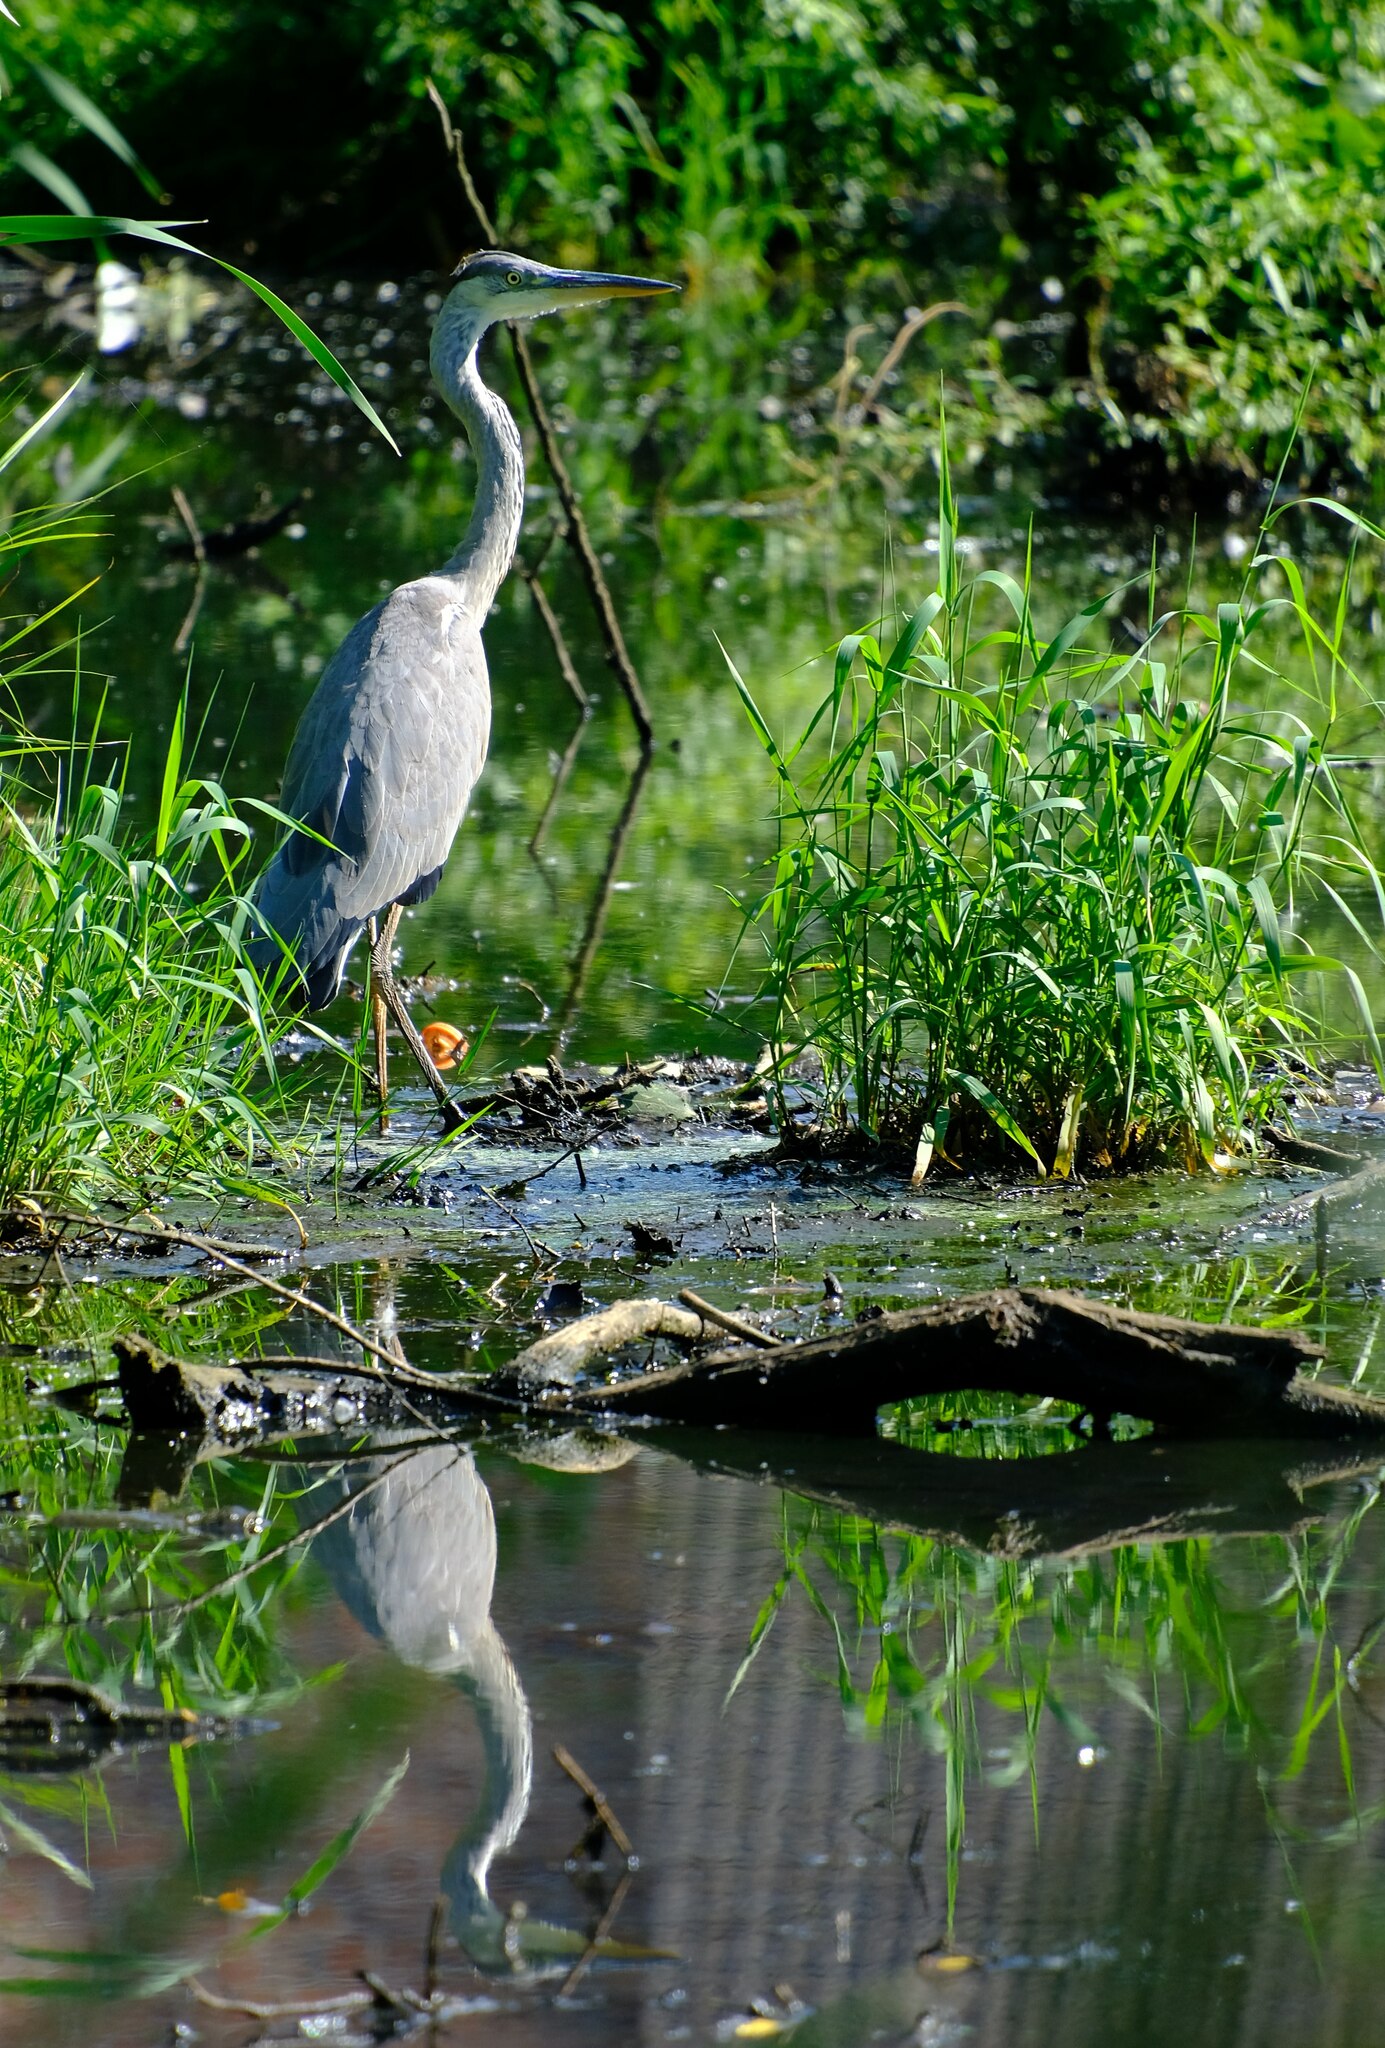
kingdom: Animalia
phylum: Chordata
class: Aves
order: Pelecaniformes
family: Ardeidae
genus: Ardea
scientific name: Ardea cinerea
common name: Grey heron
